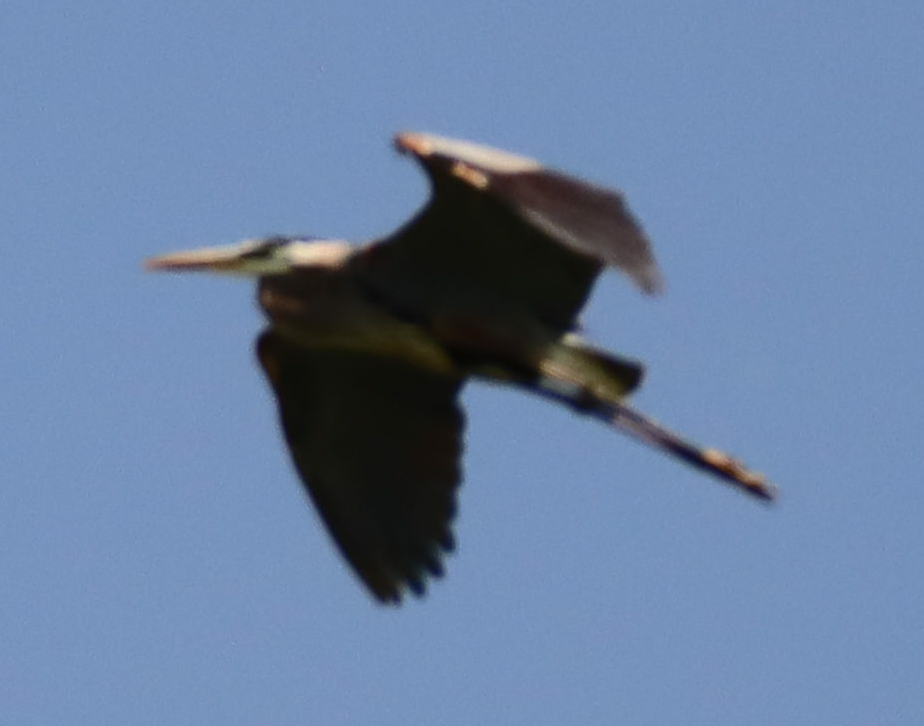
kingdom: Animalia
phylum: Chordata
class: Aves
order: Pelecaniformes
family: Ardeidae
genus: Ardea
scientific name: Ardea herodias
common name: Great blue heron
